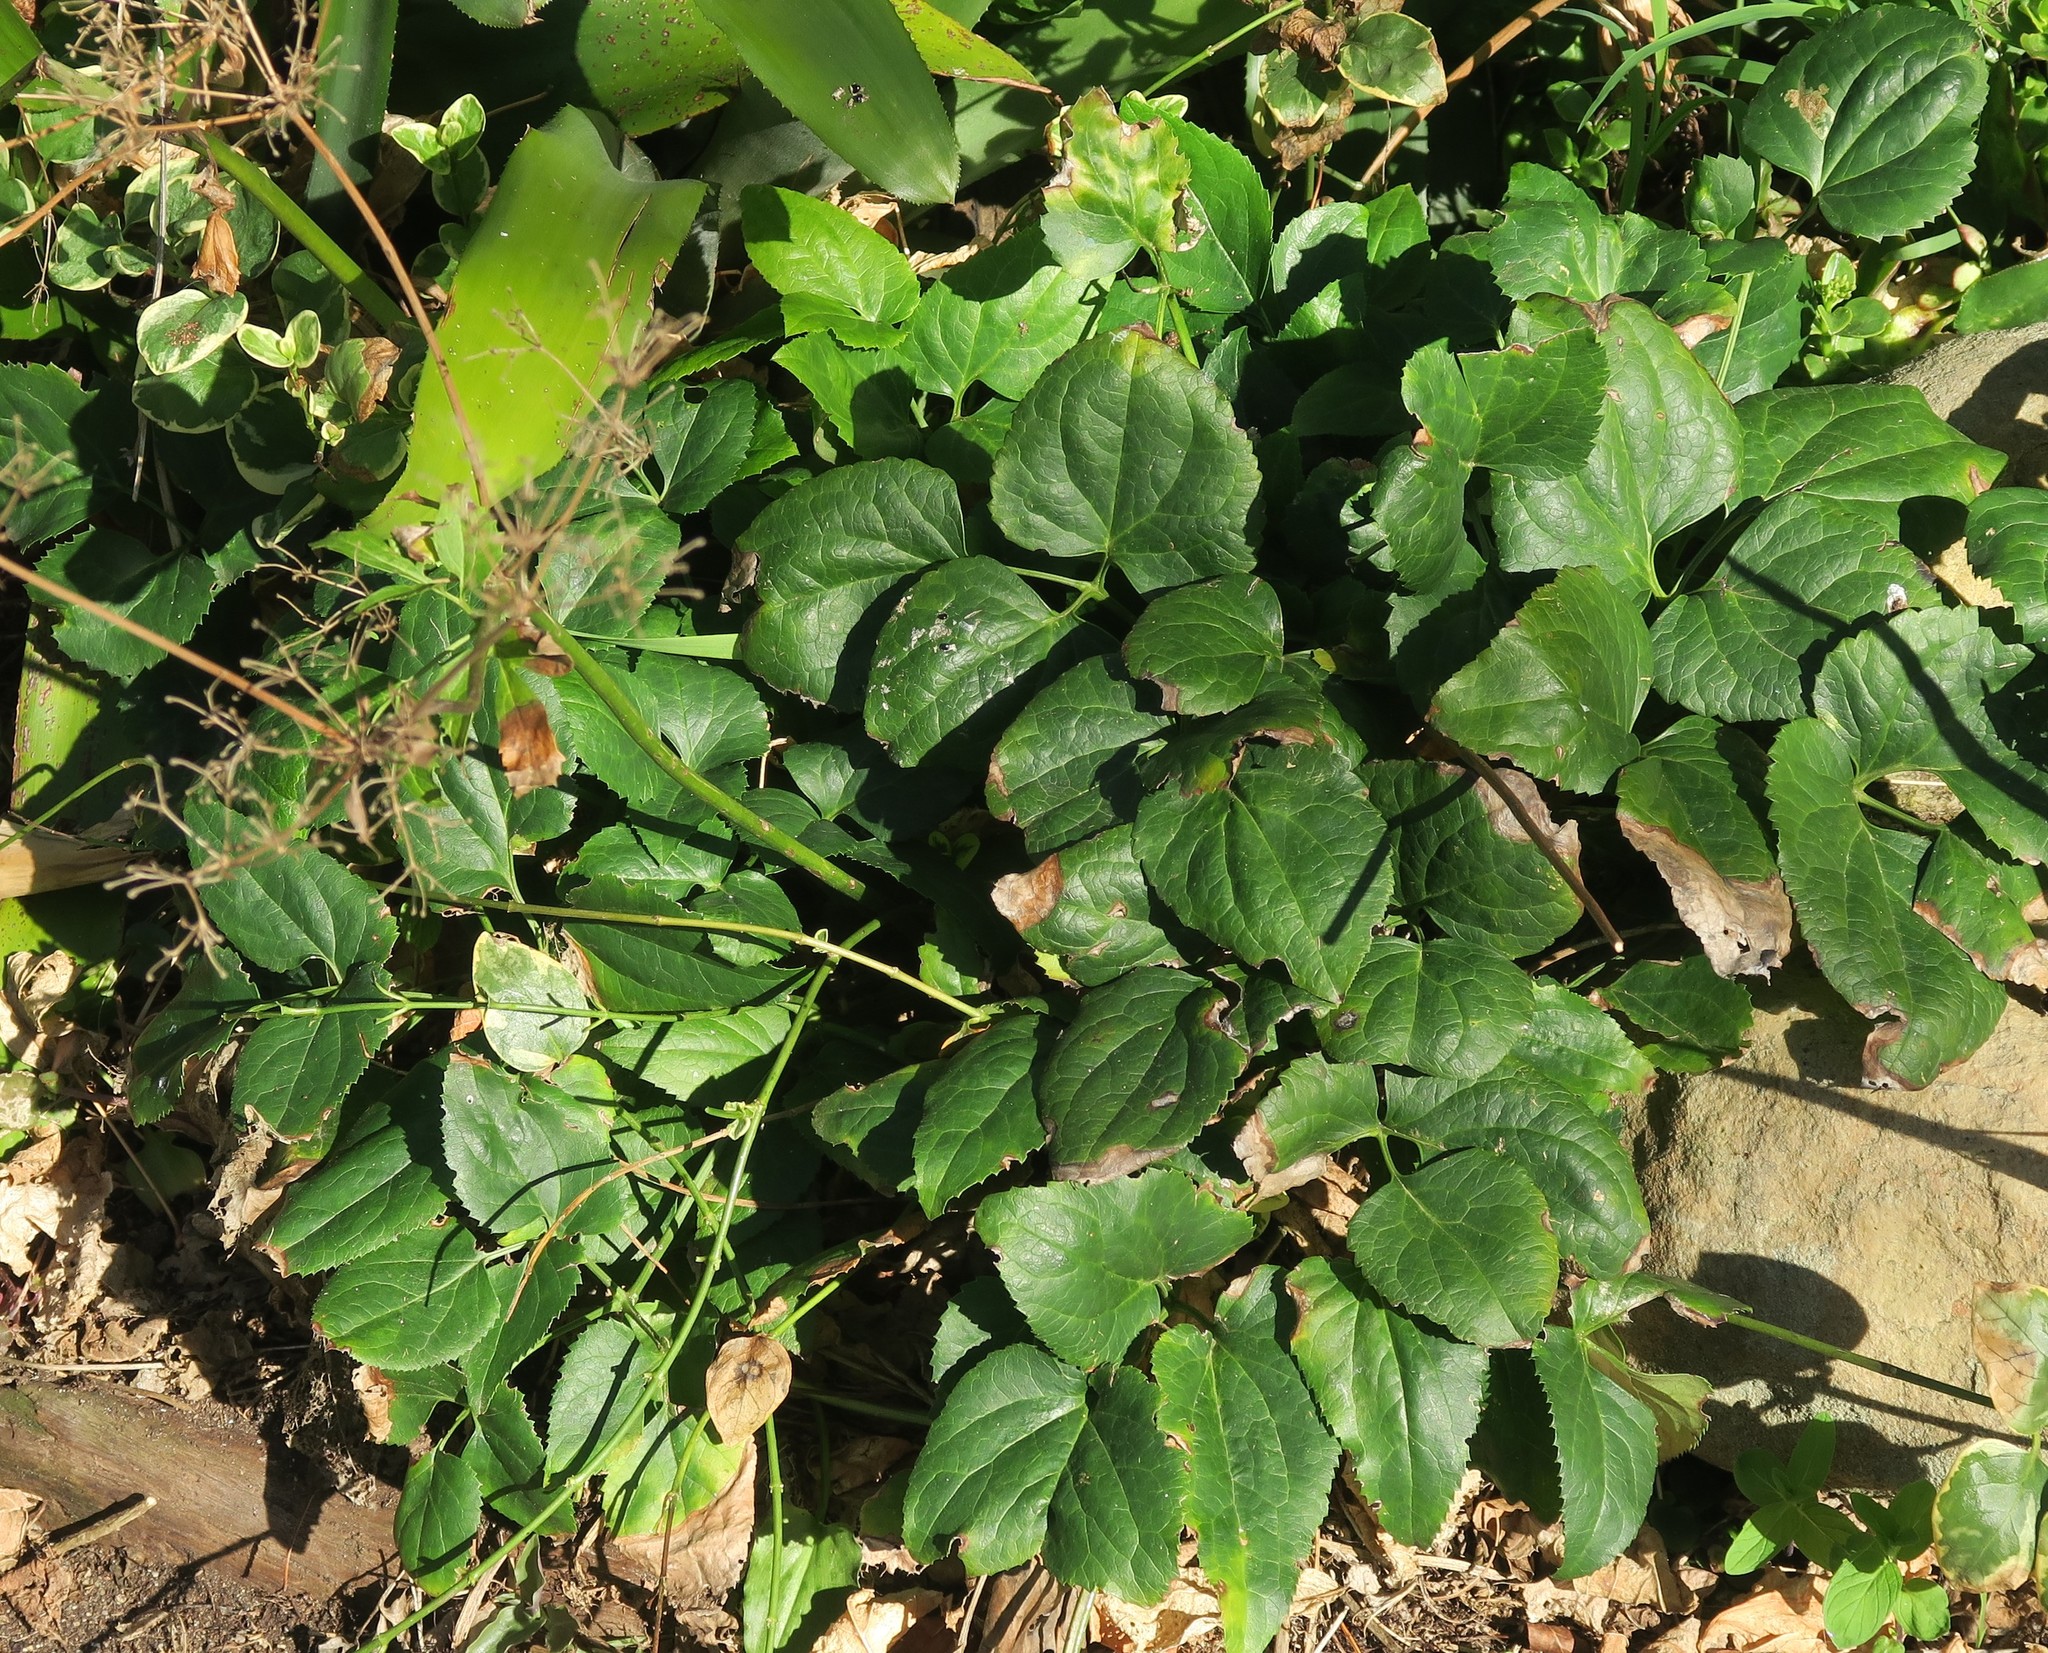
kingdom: Plantae
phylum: Tracheophyta
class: Magnoliopsida
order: Ranunculales
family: Ranunculaceae
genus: Knowltonia
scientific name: Knowltonia vesicatoria
